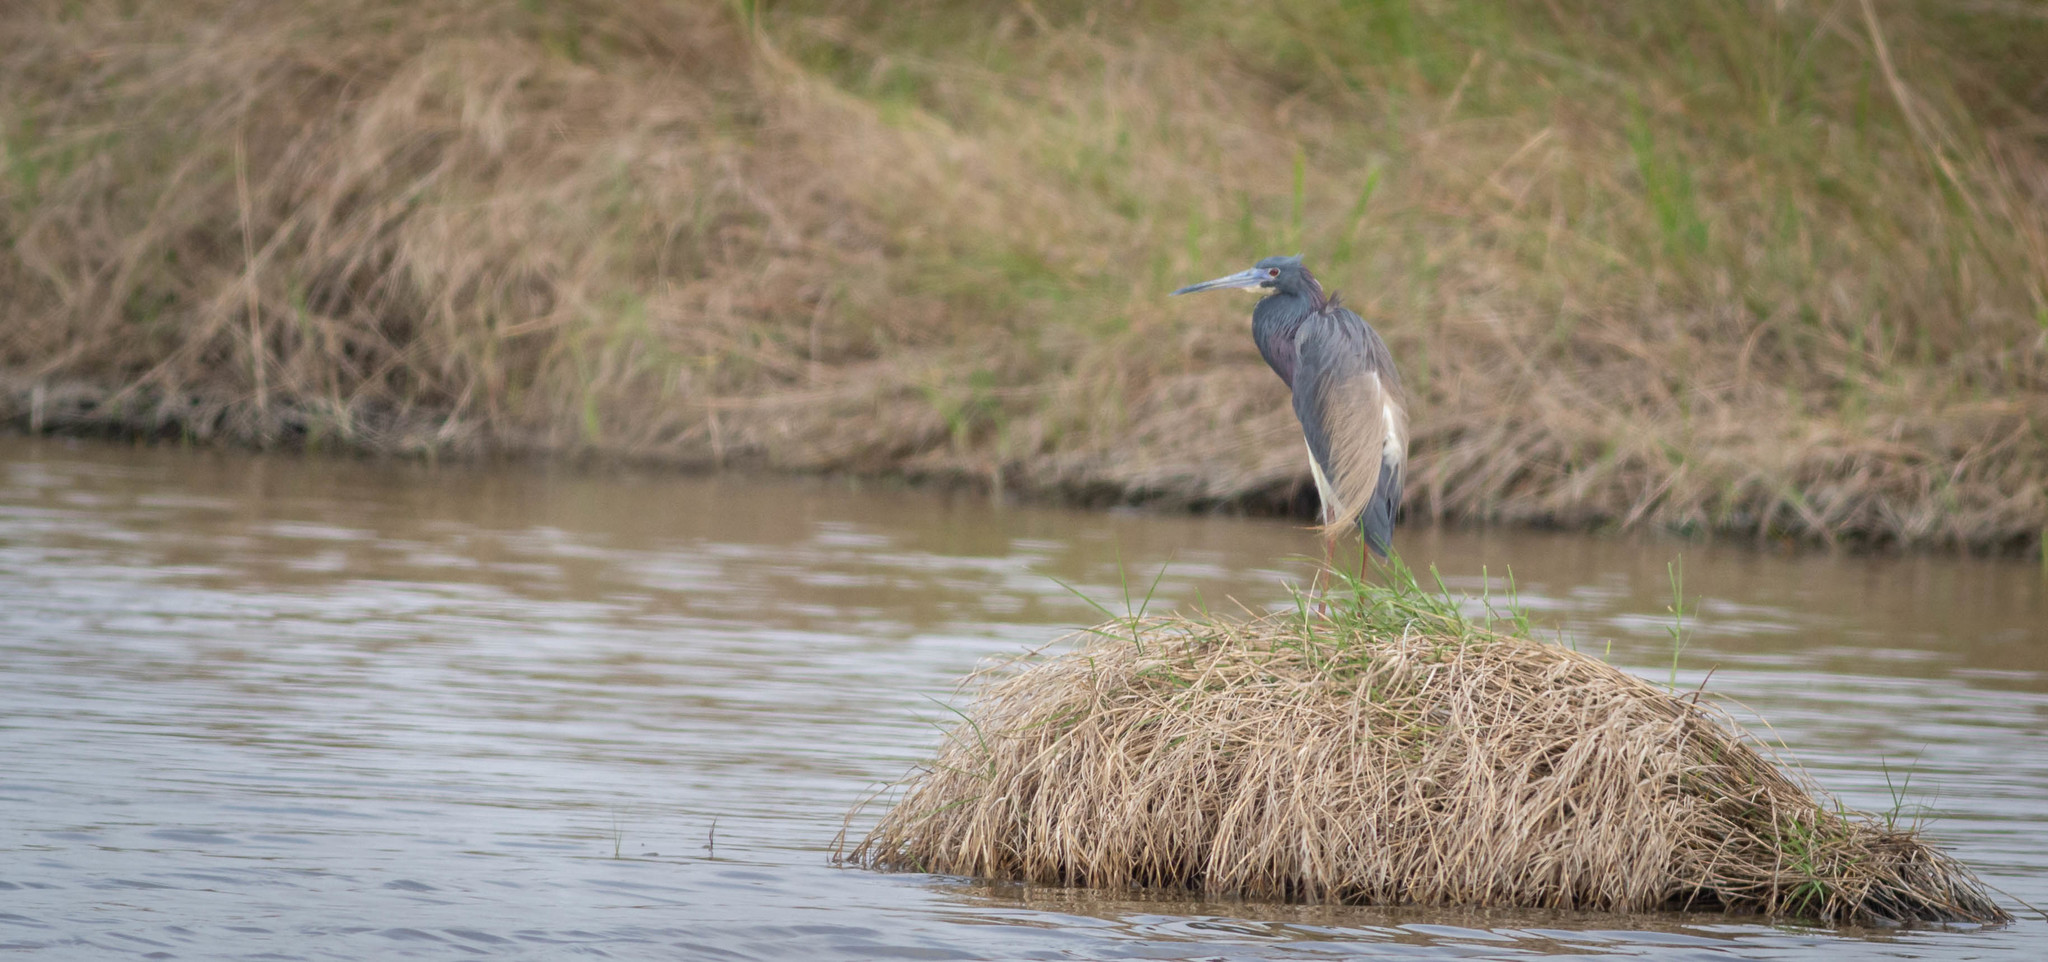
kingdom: Animalia
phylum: Chordata
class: Aves
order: Pelecaniformes
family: Ardeidae
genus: Egretta
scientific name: Egretta tricolor
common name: Tricolored heron
